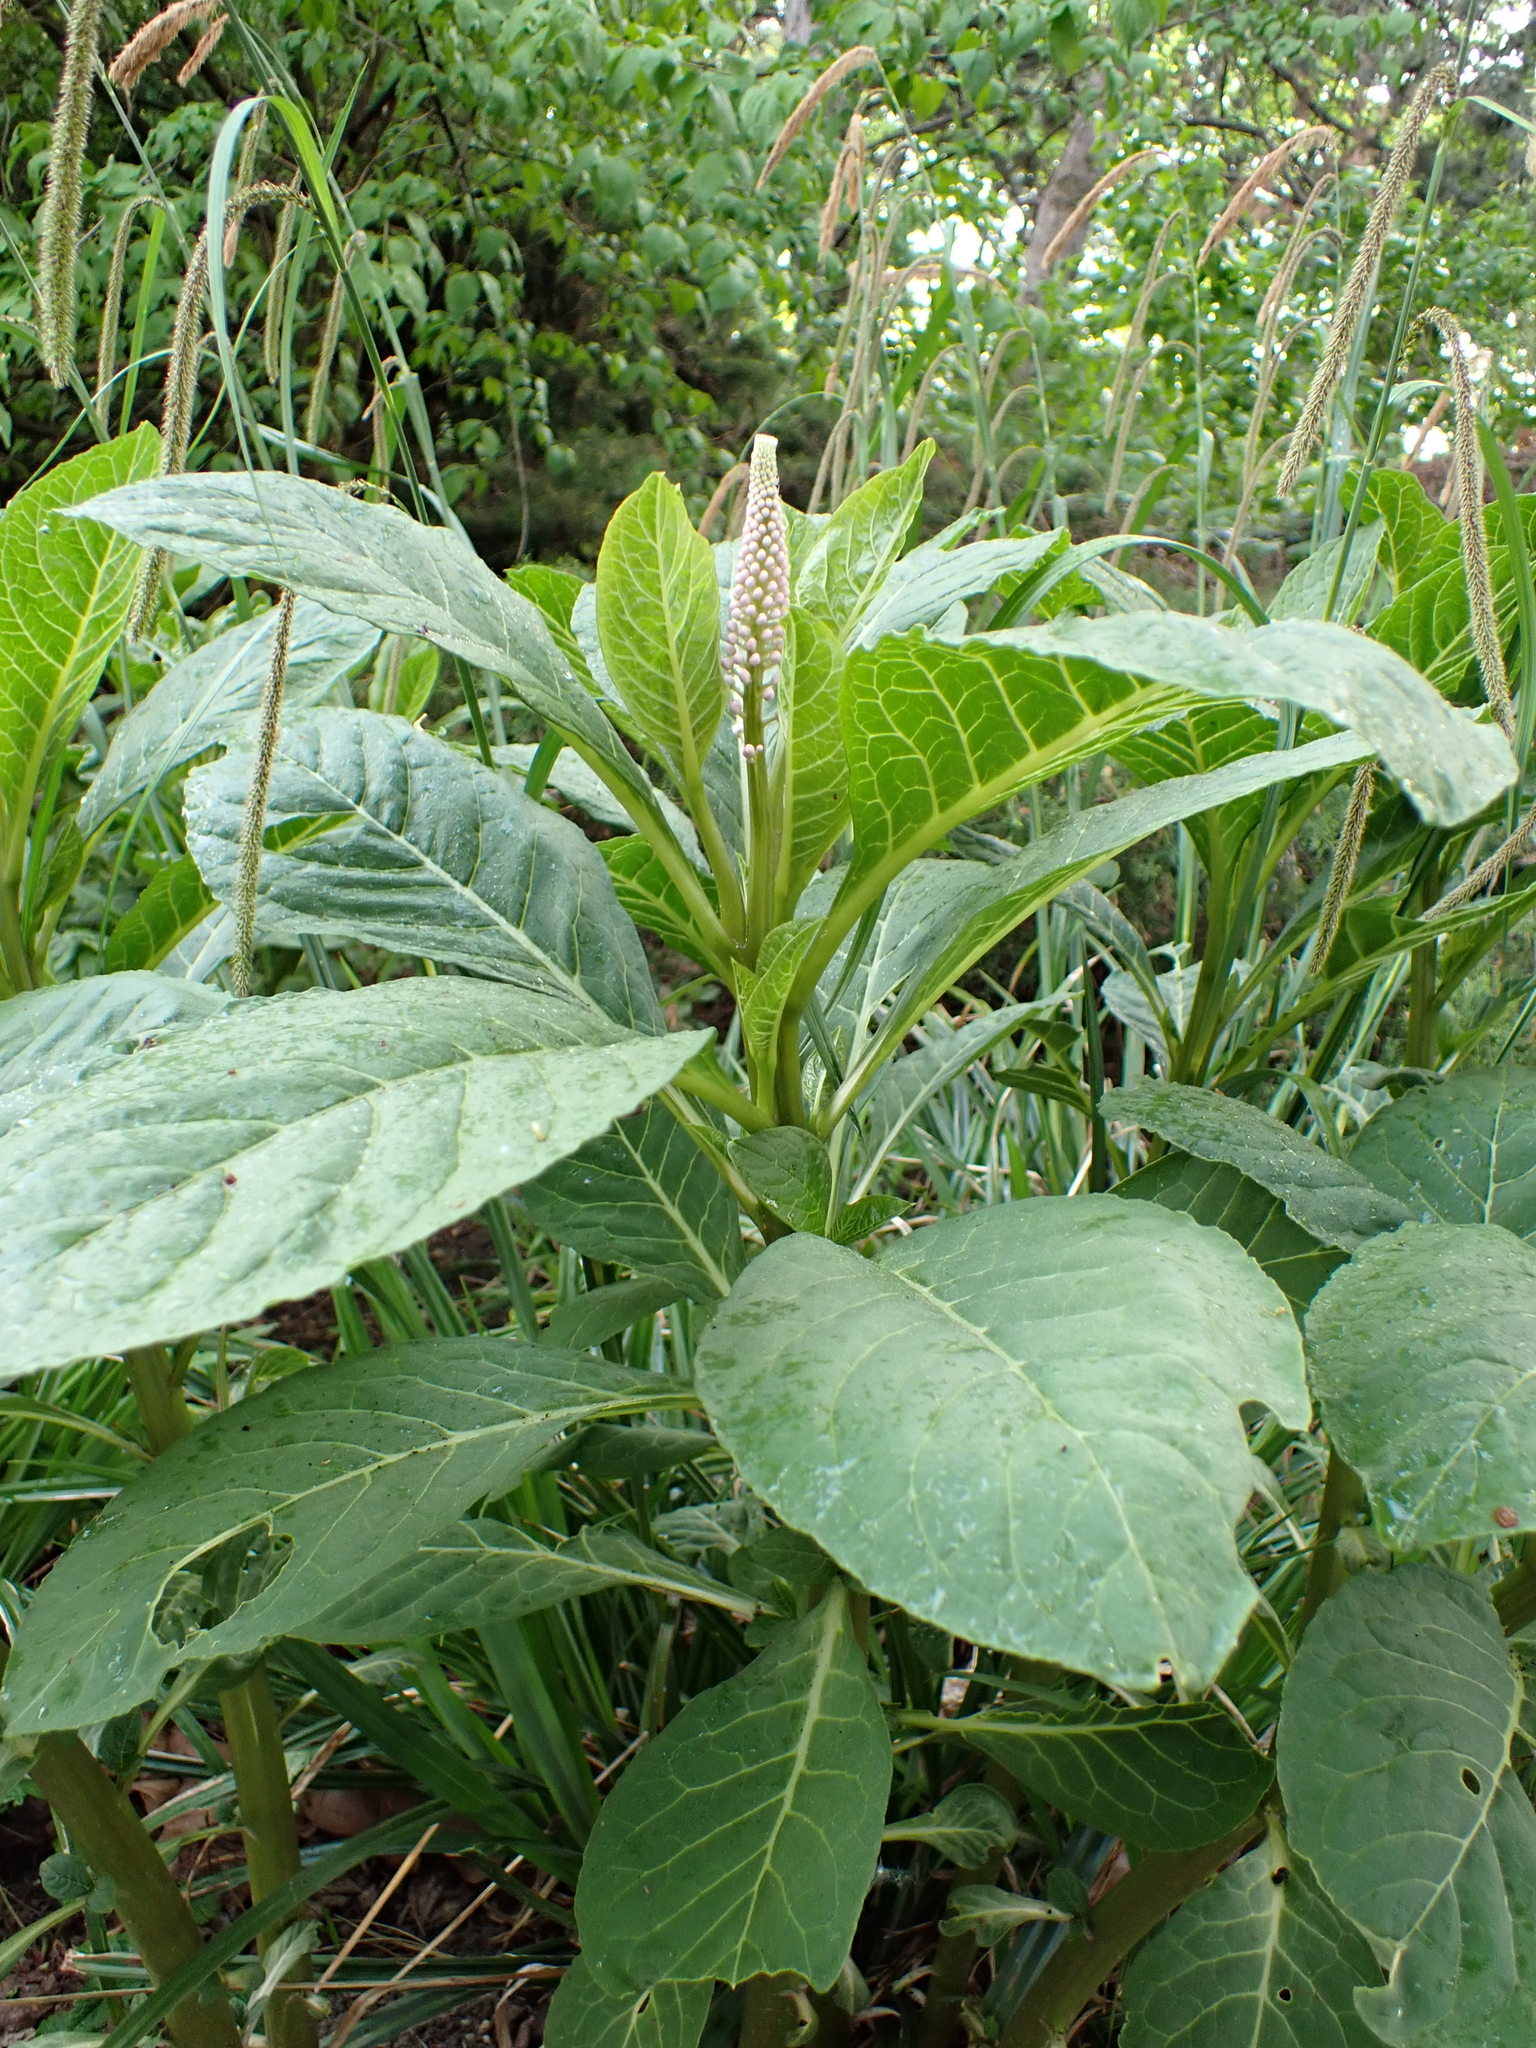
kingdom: Plantae
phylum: Tracheophyta
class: Magnoliopsida
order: Caryophyllales
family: Phytolaccaceae
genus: Phytolacca
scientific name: Phytolacca acinosa
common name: Indian pokeweed
